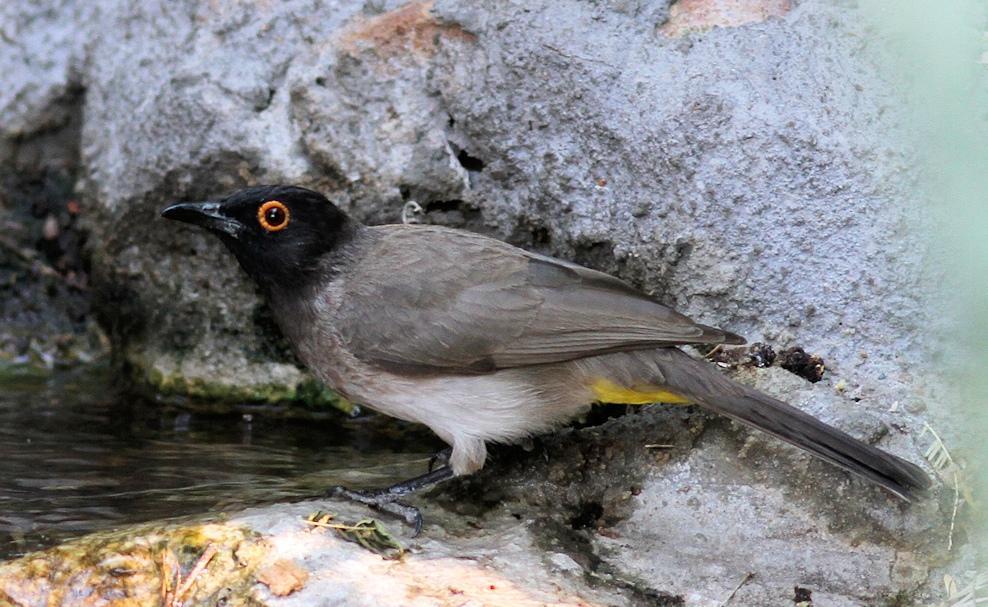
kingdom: Animalia
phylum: Chordata
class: Aves
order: Passeriformes
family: Pycnonotidae
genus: Pycnonotus
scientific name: Pycnonotus nigricans
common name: African red-eyed bulbul
